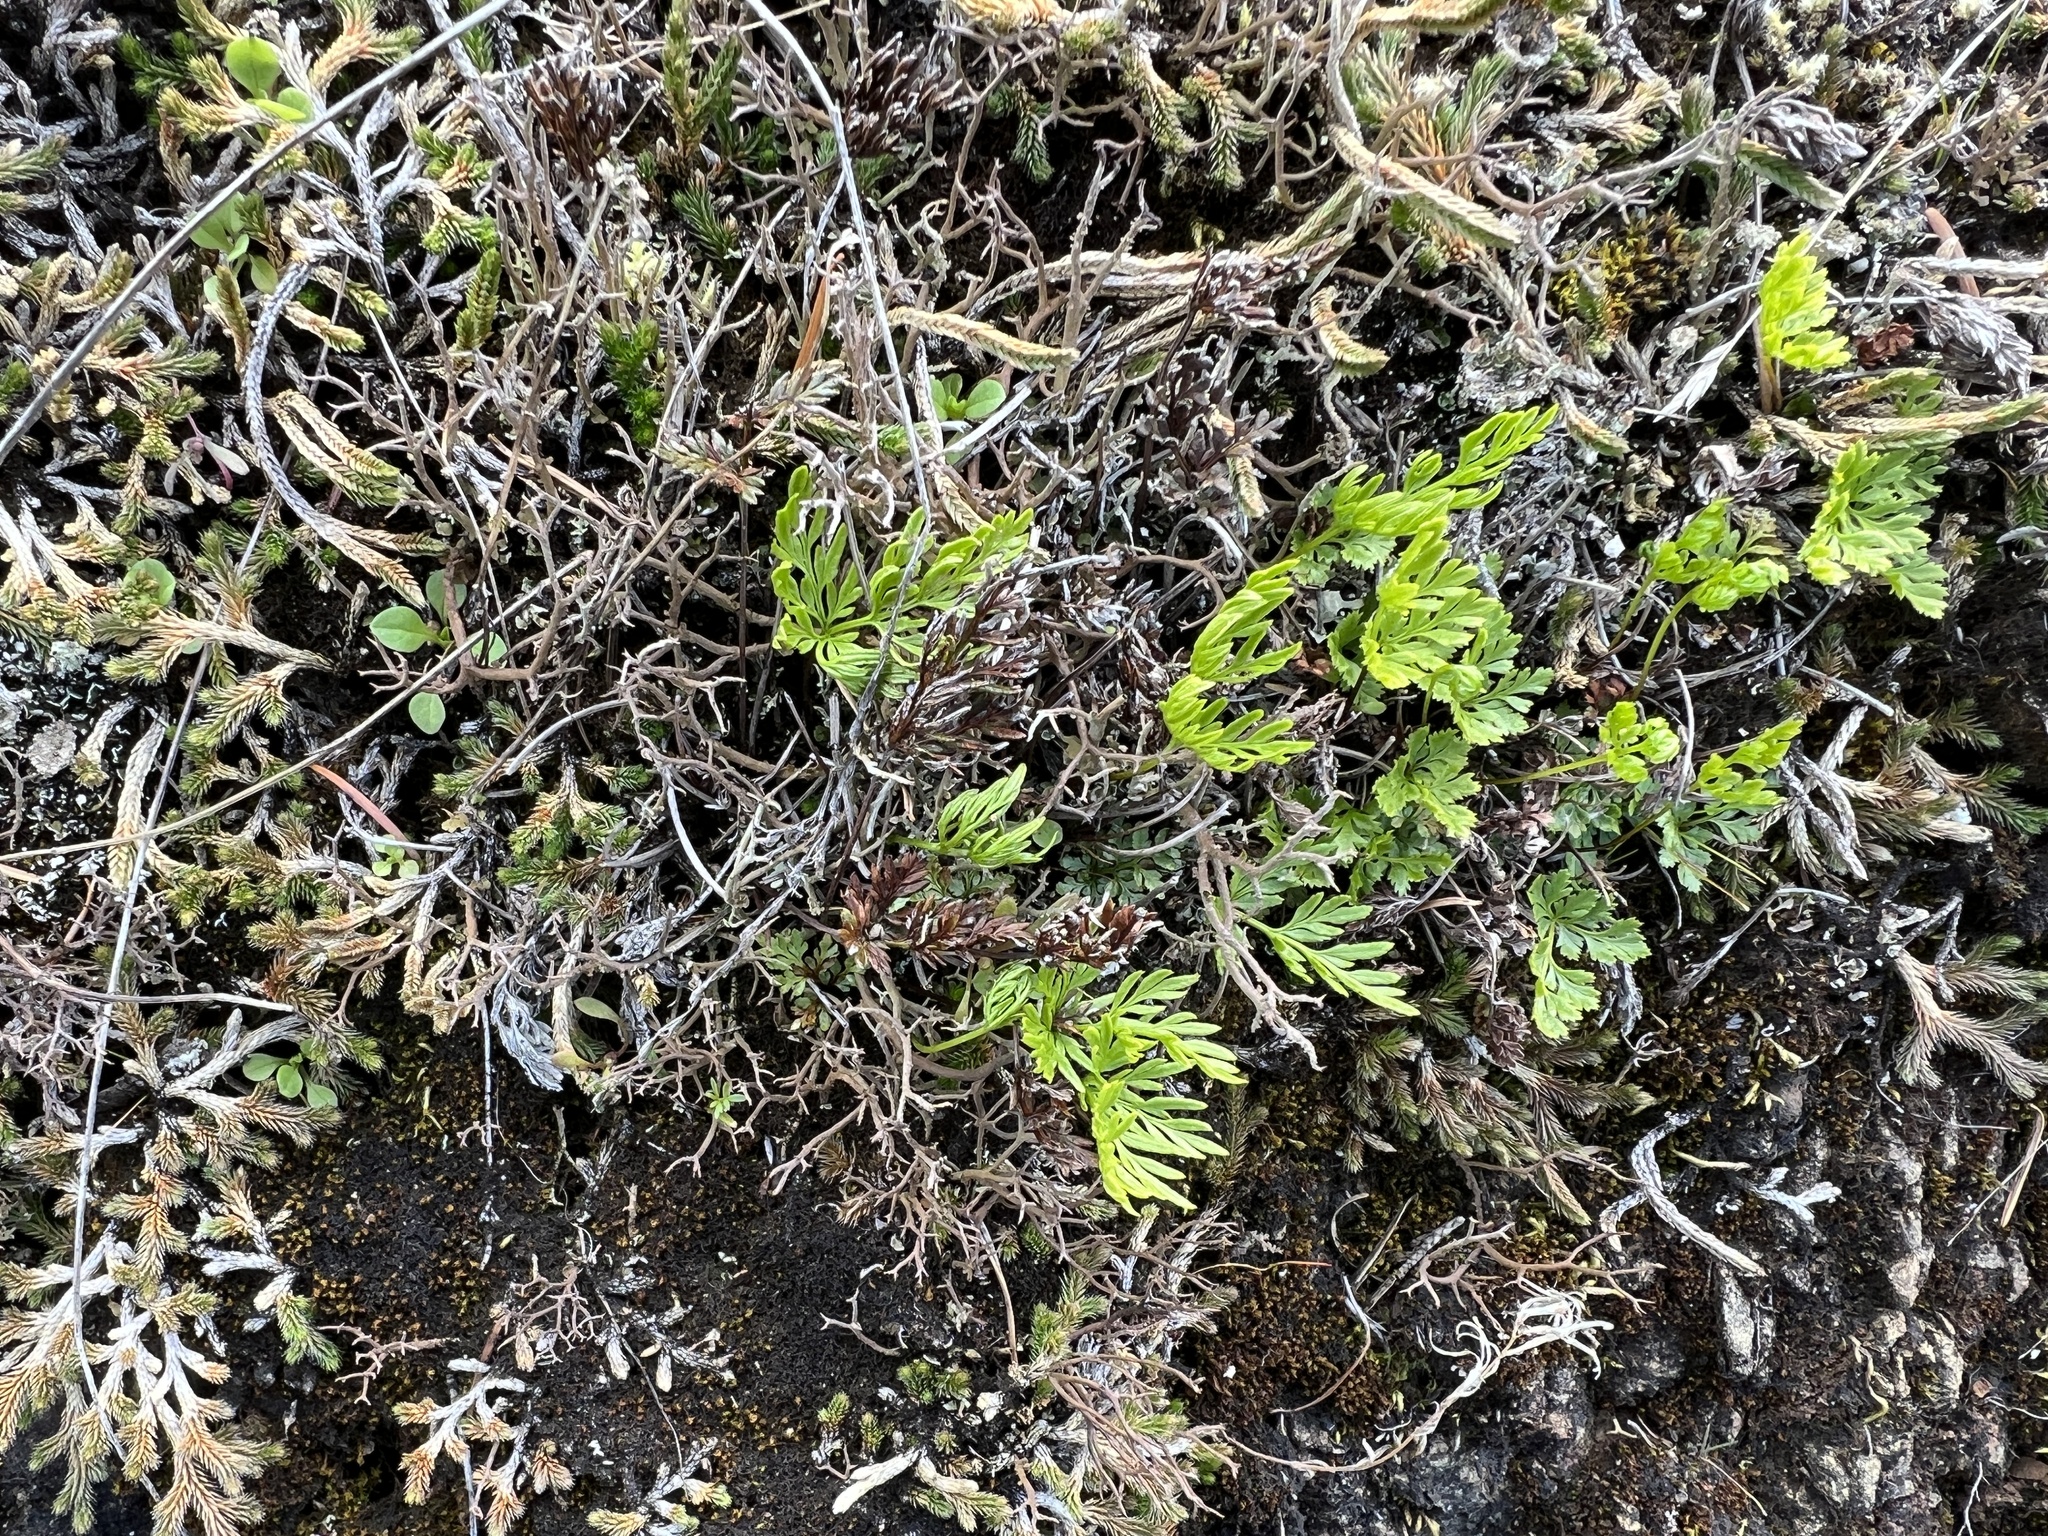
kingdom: Plantae
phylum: Tracheophyta
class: Polypodiopsida
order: Polypodiales
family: Pteridaceae
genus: Aspidotis
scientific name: Aspidotis densa
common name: Indian's dream
